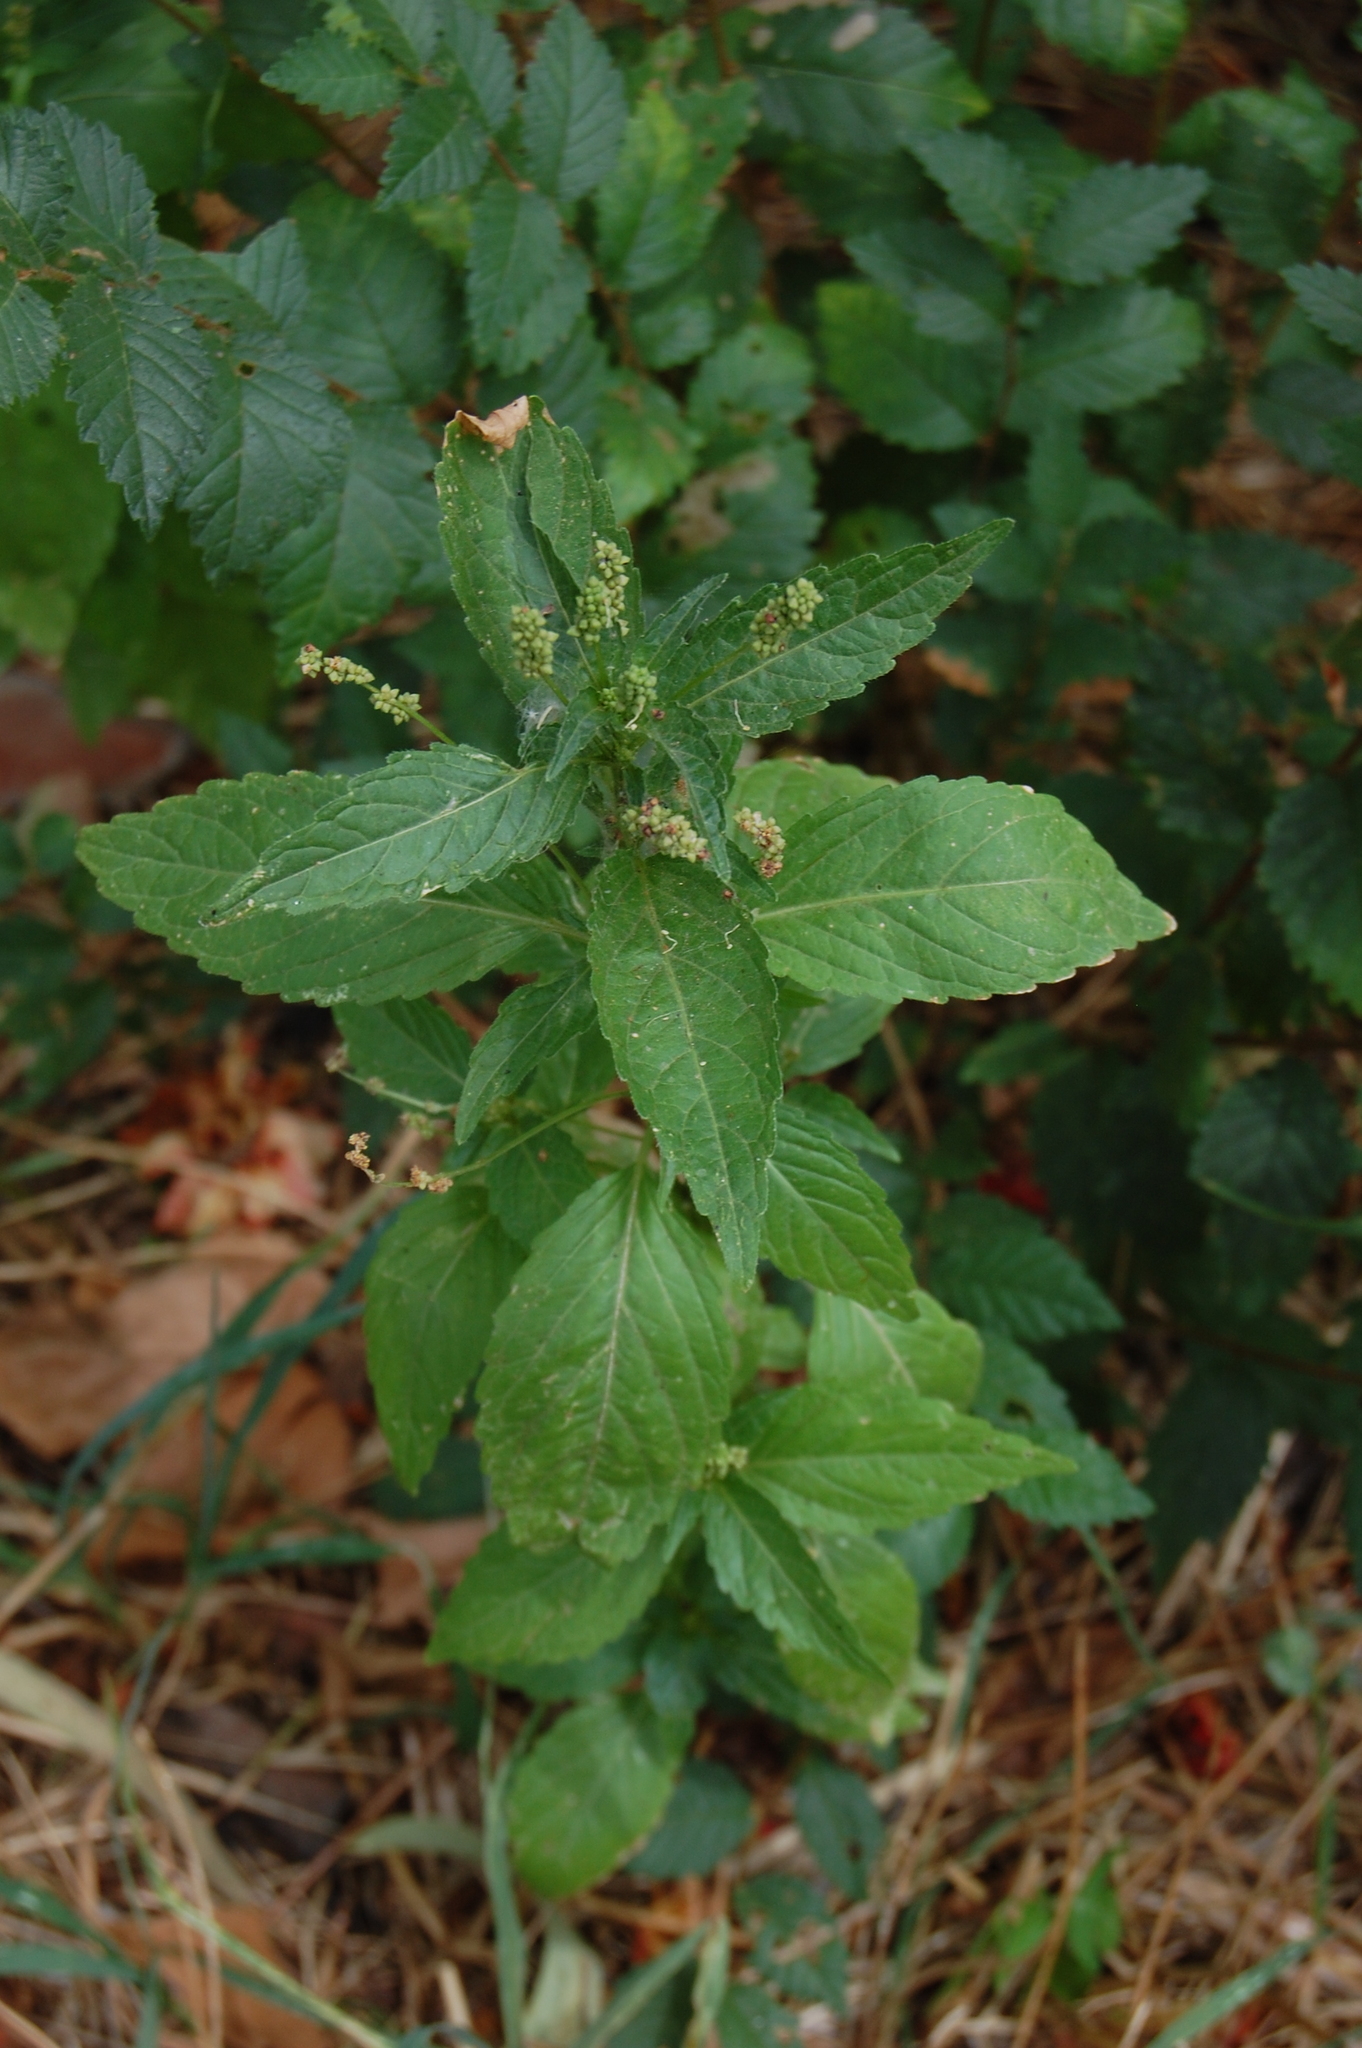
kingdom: Plantae
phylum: Tracheophyta
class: Magnoliopsida
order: Malpighiales
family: Euphorbiaceae
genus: Mercurialis
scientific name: Mercurialis annua
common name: Annual mercury
